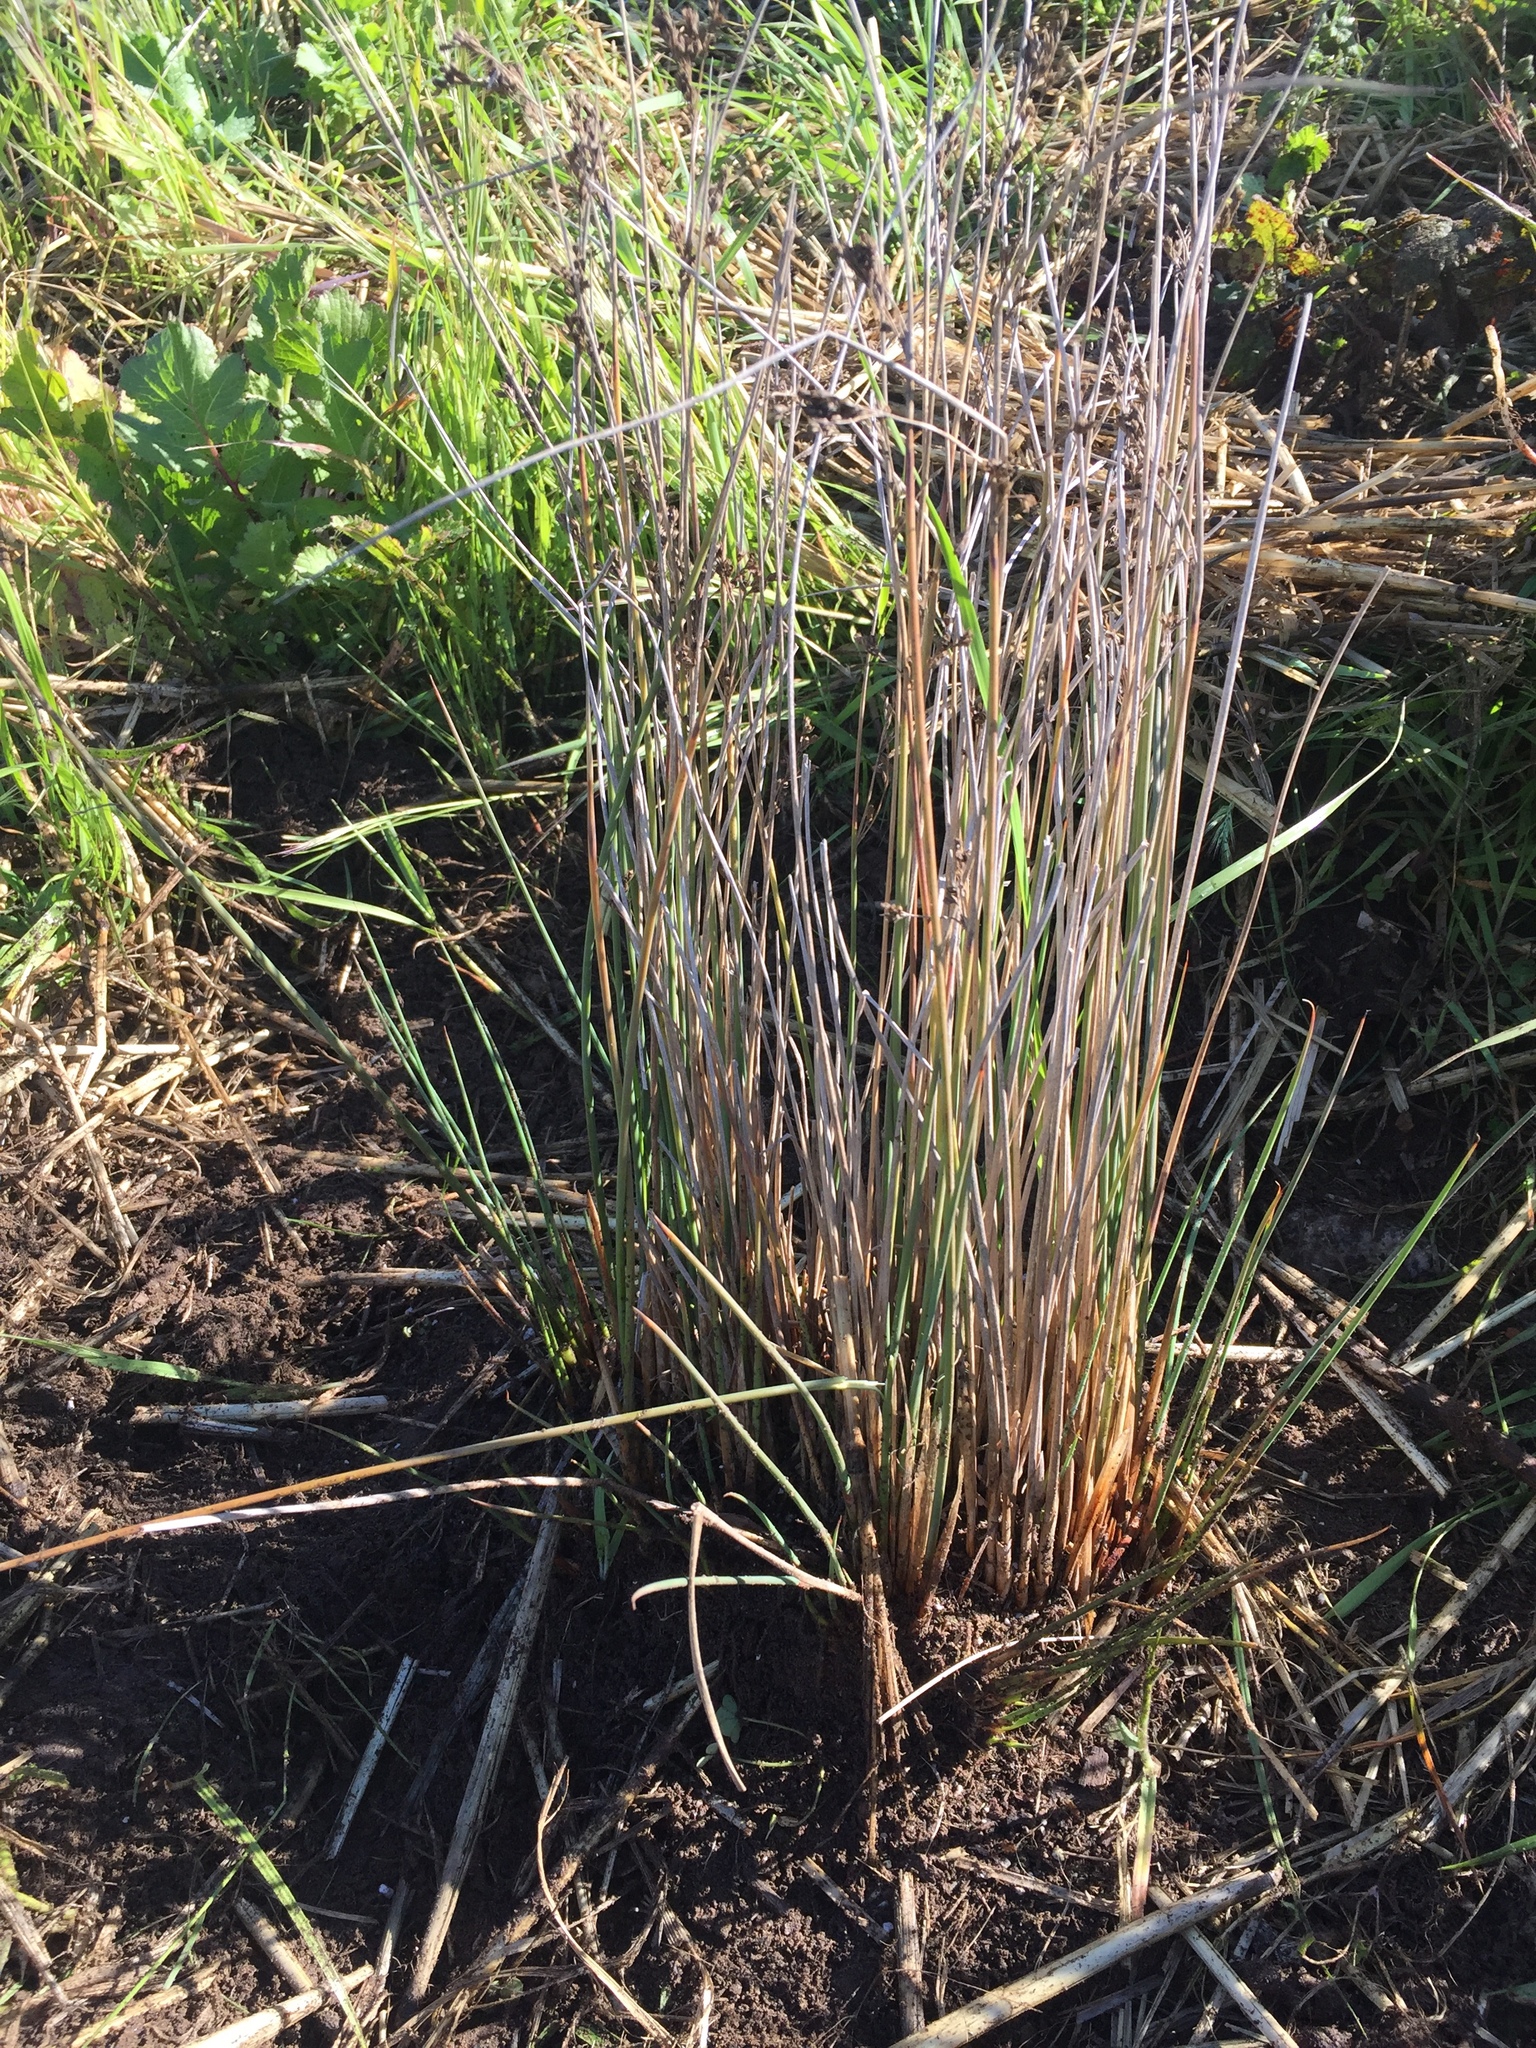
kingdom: Plantae
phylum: Tracheophyta
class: Liliopsida
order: Poales
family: Juncaceae
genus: Juncus
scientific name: Juncus patens
